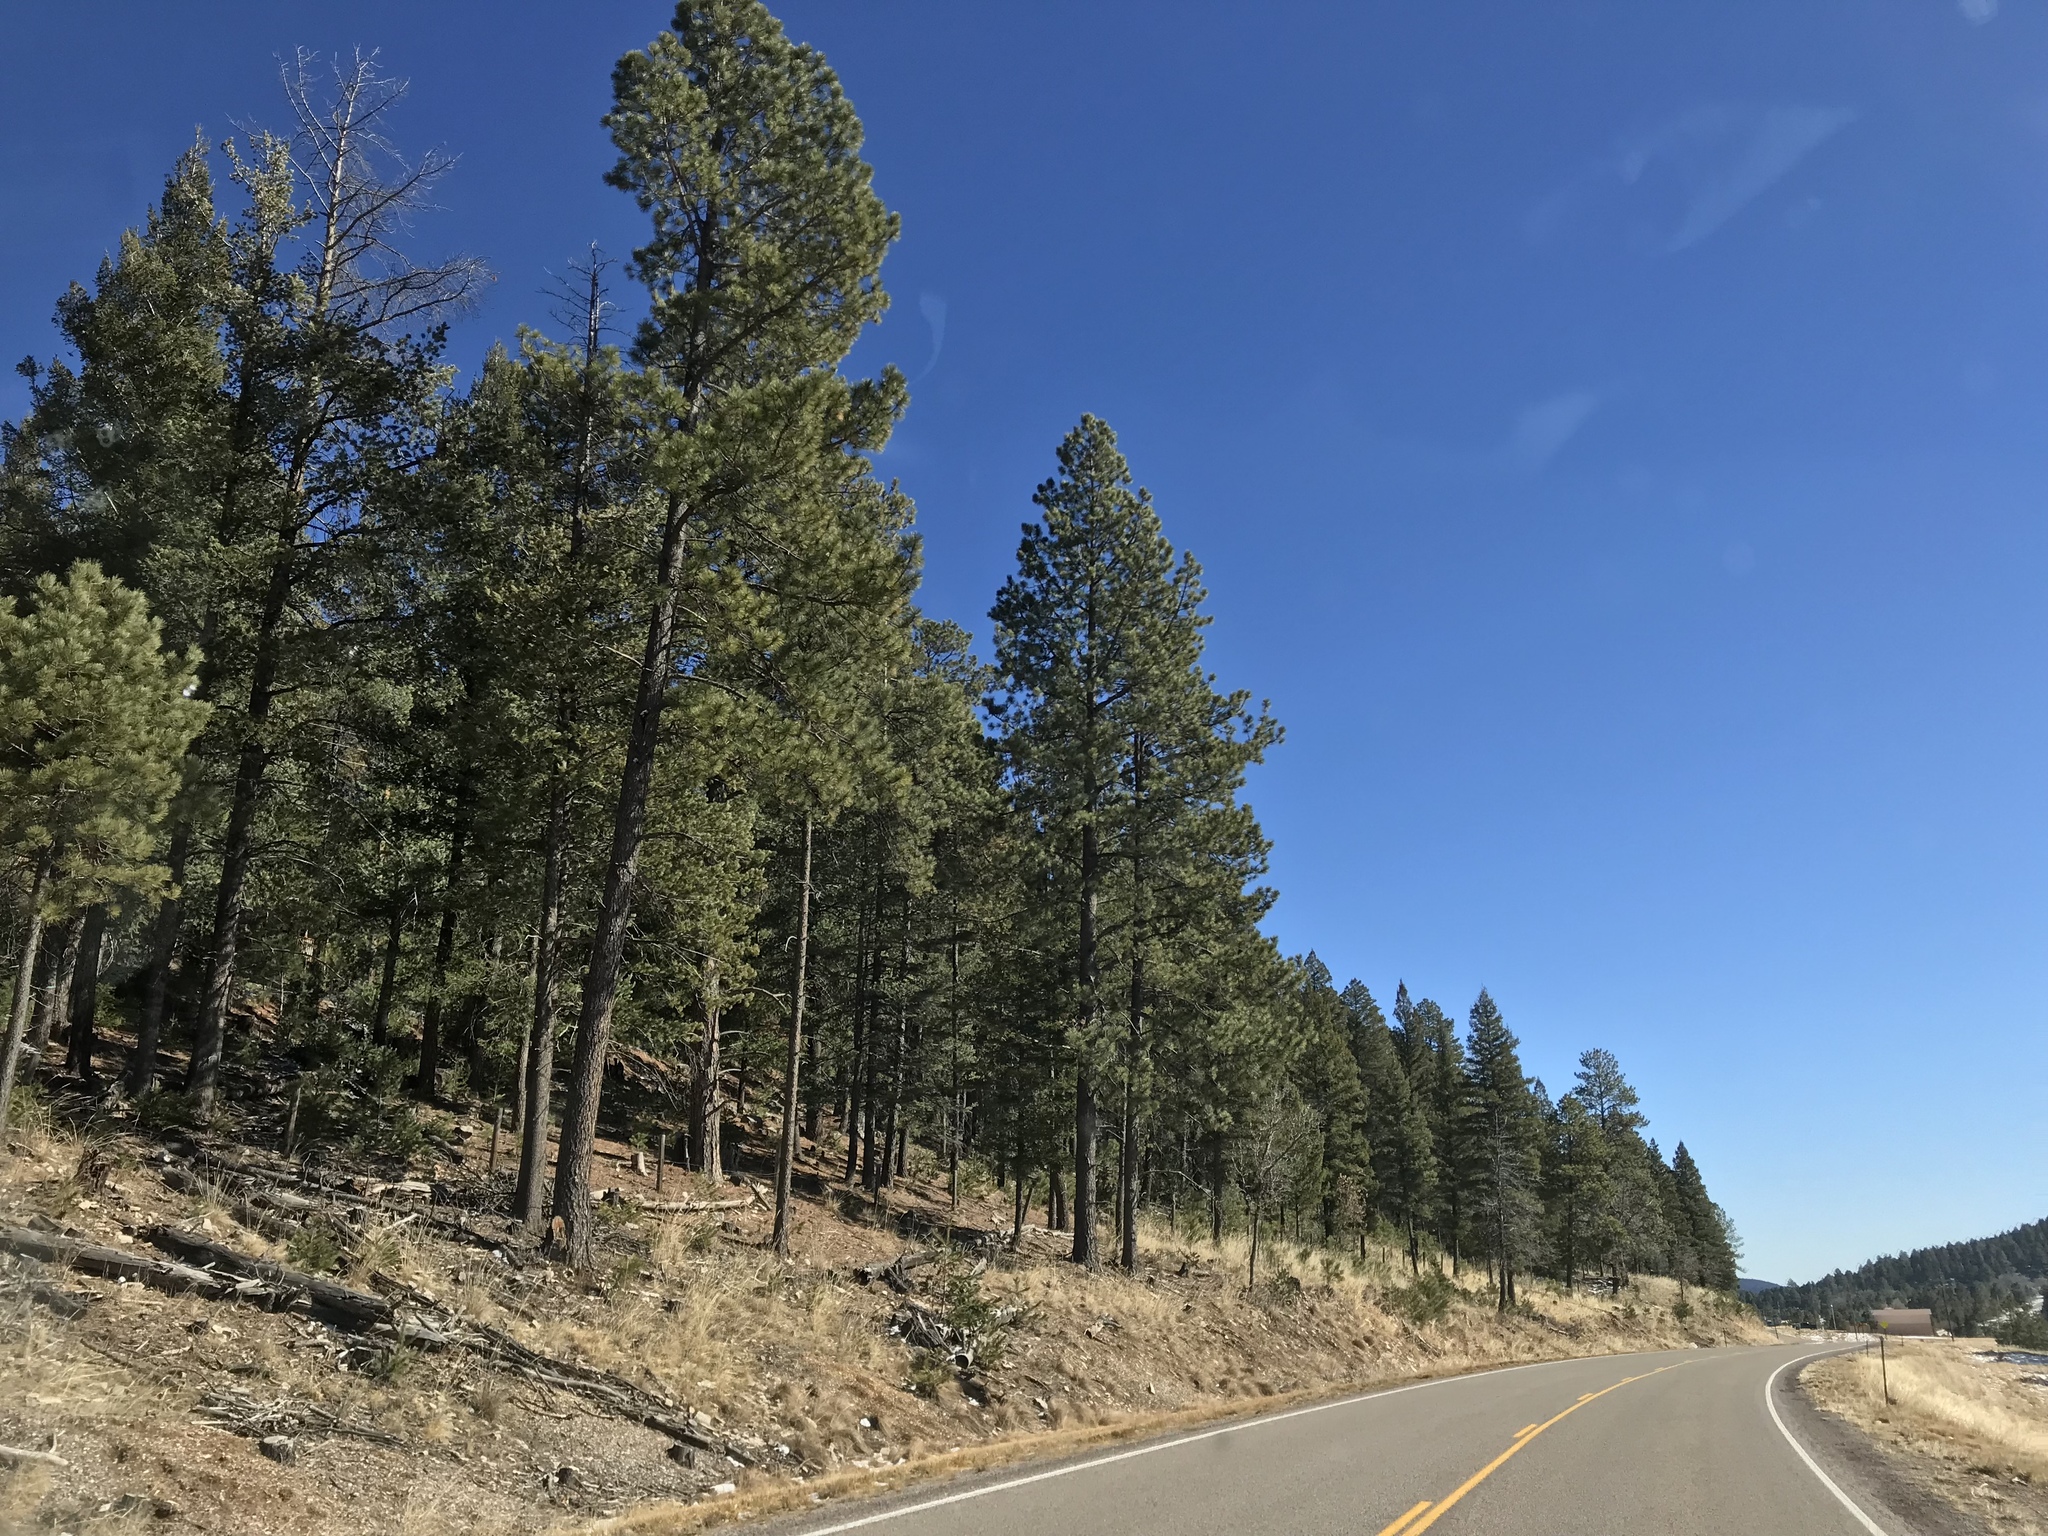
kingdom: Plantae
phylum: Tracheophyta
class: Pinopsida
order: Pinales
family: Pinaceae
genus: Pinus
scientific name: Pinus strobiformis
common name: Southwestern white pine
